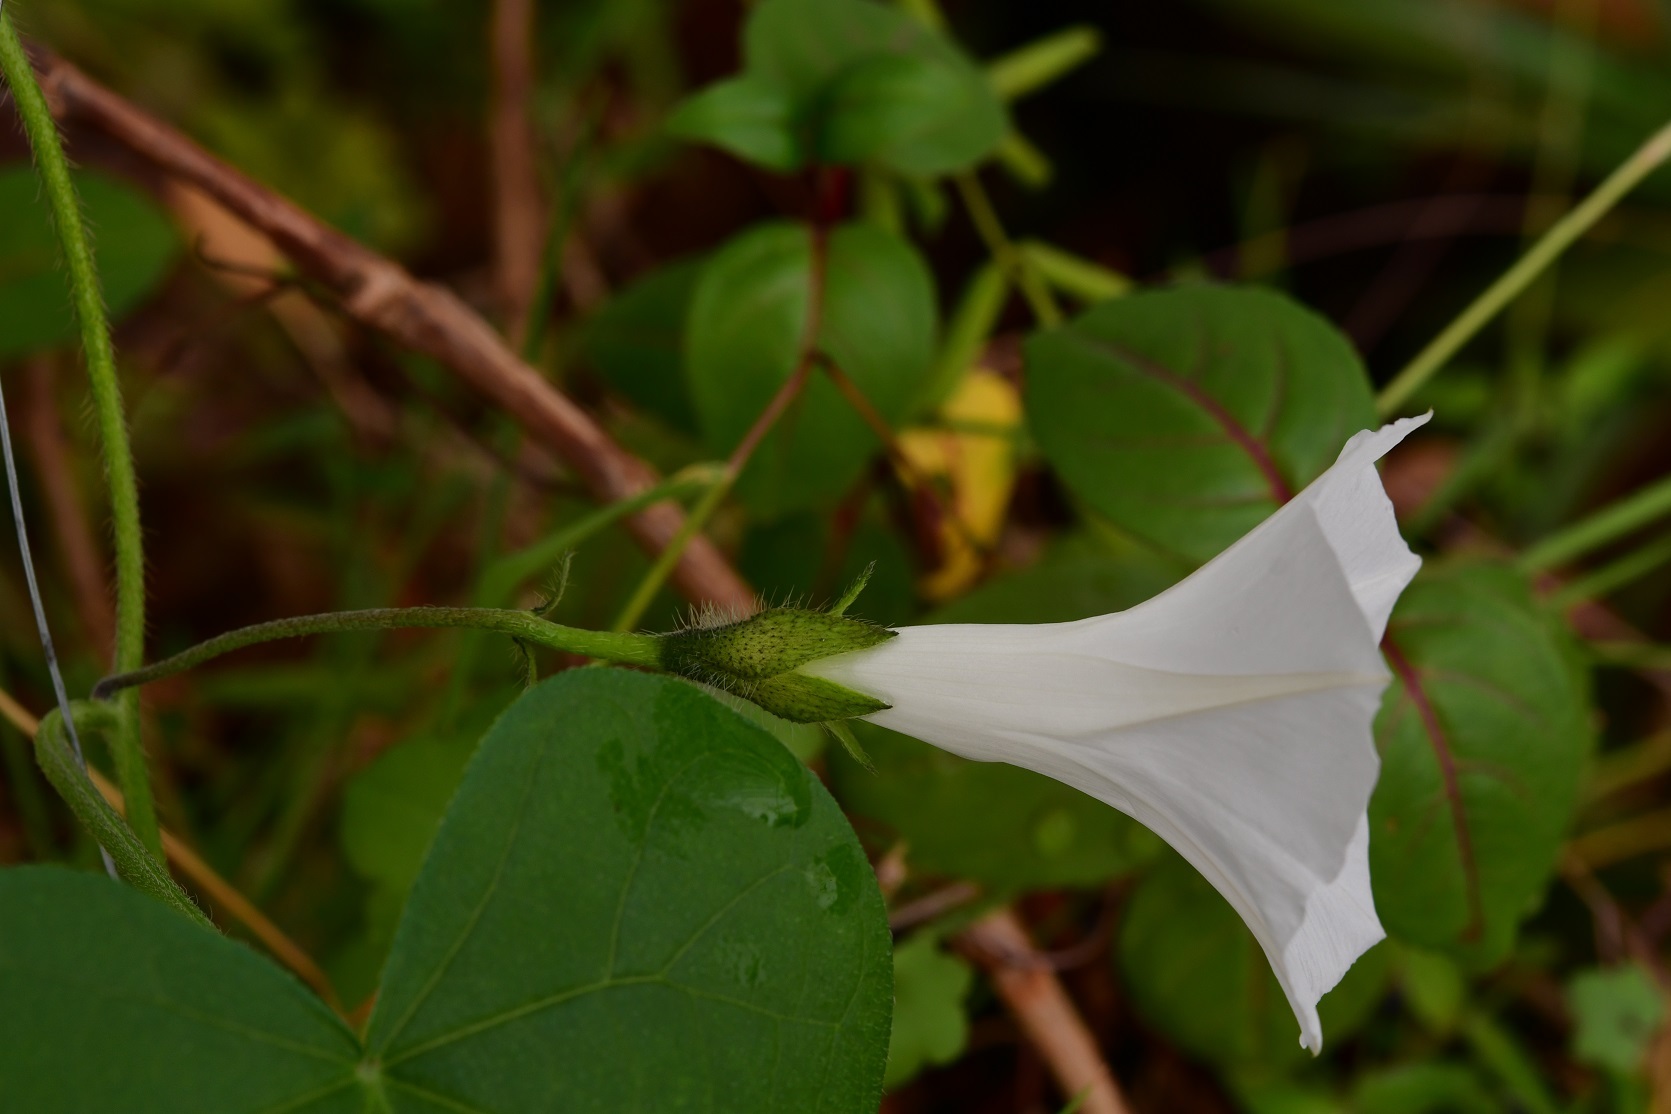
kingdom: Plantae
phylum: Tracheophyta
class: Magnoliopsida
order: Solanales
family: Convolvulaceae
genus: Ipomoea
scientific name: Ipomoea purpurea
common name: Common morning-glory
